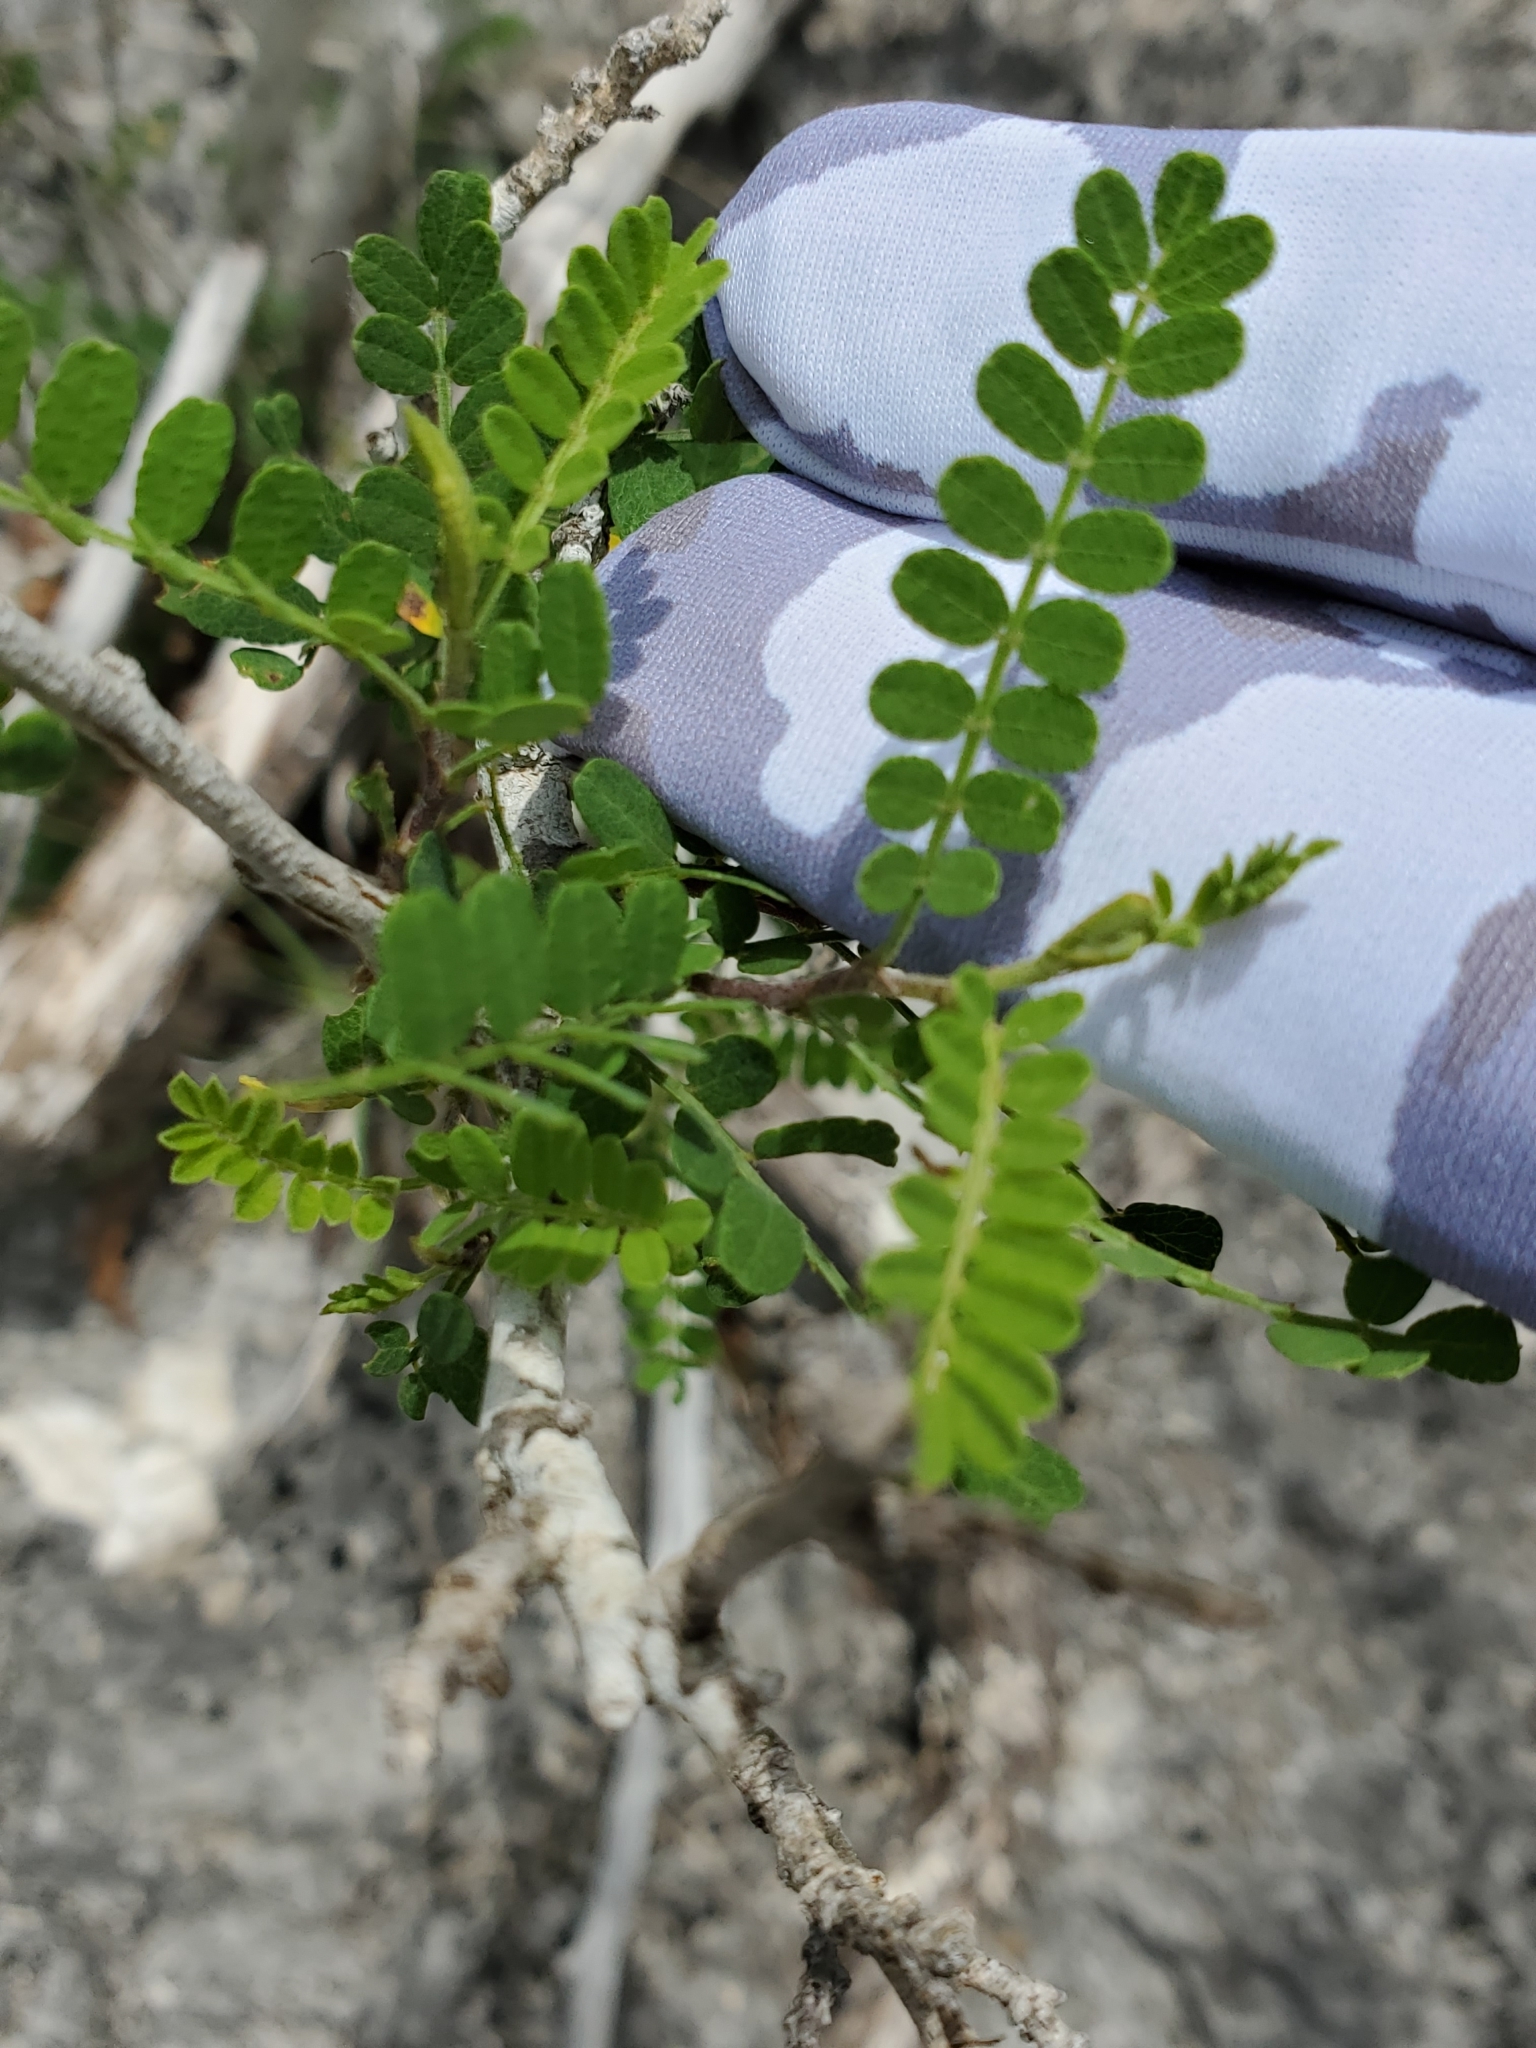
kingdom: Plantae
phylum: Tracheophyta
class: Magnoliopsida
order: Fabales
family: Fabaceae
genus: Eysenhardtia
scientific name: Eysenhardtia texana
